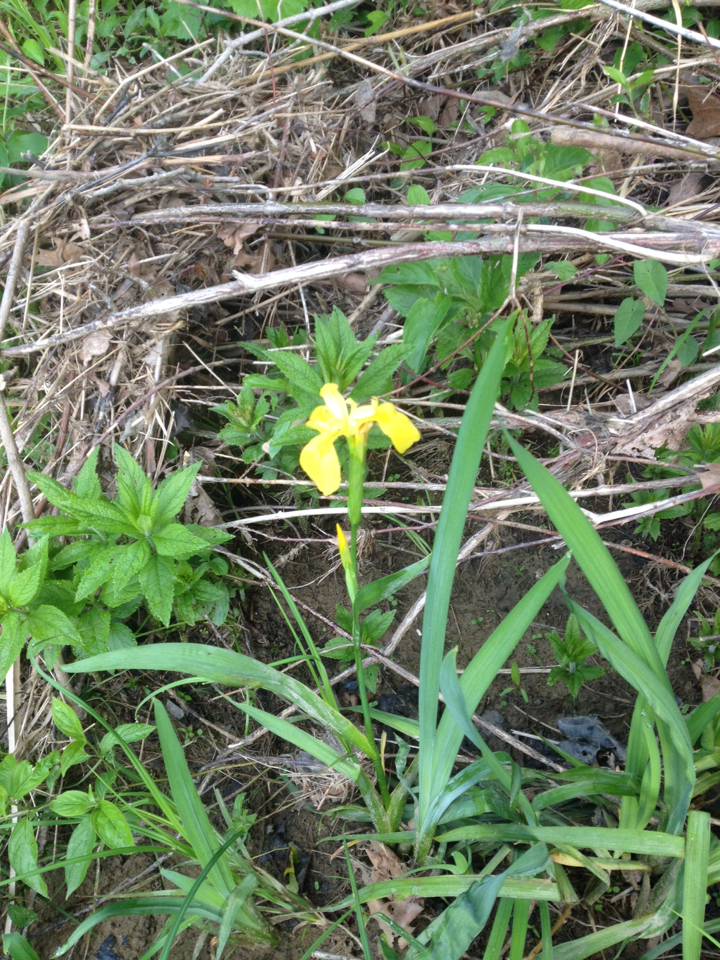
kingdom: Plantae
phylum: Tracheophyta
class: Liliopsida
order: Asparagales
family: Iridaceae
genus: Iris
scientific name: Iris pseudacorus
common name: Yellow flag
